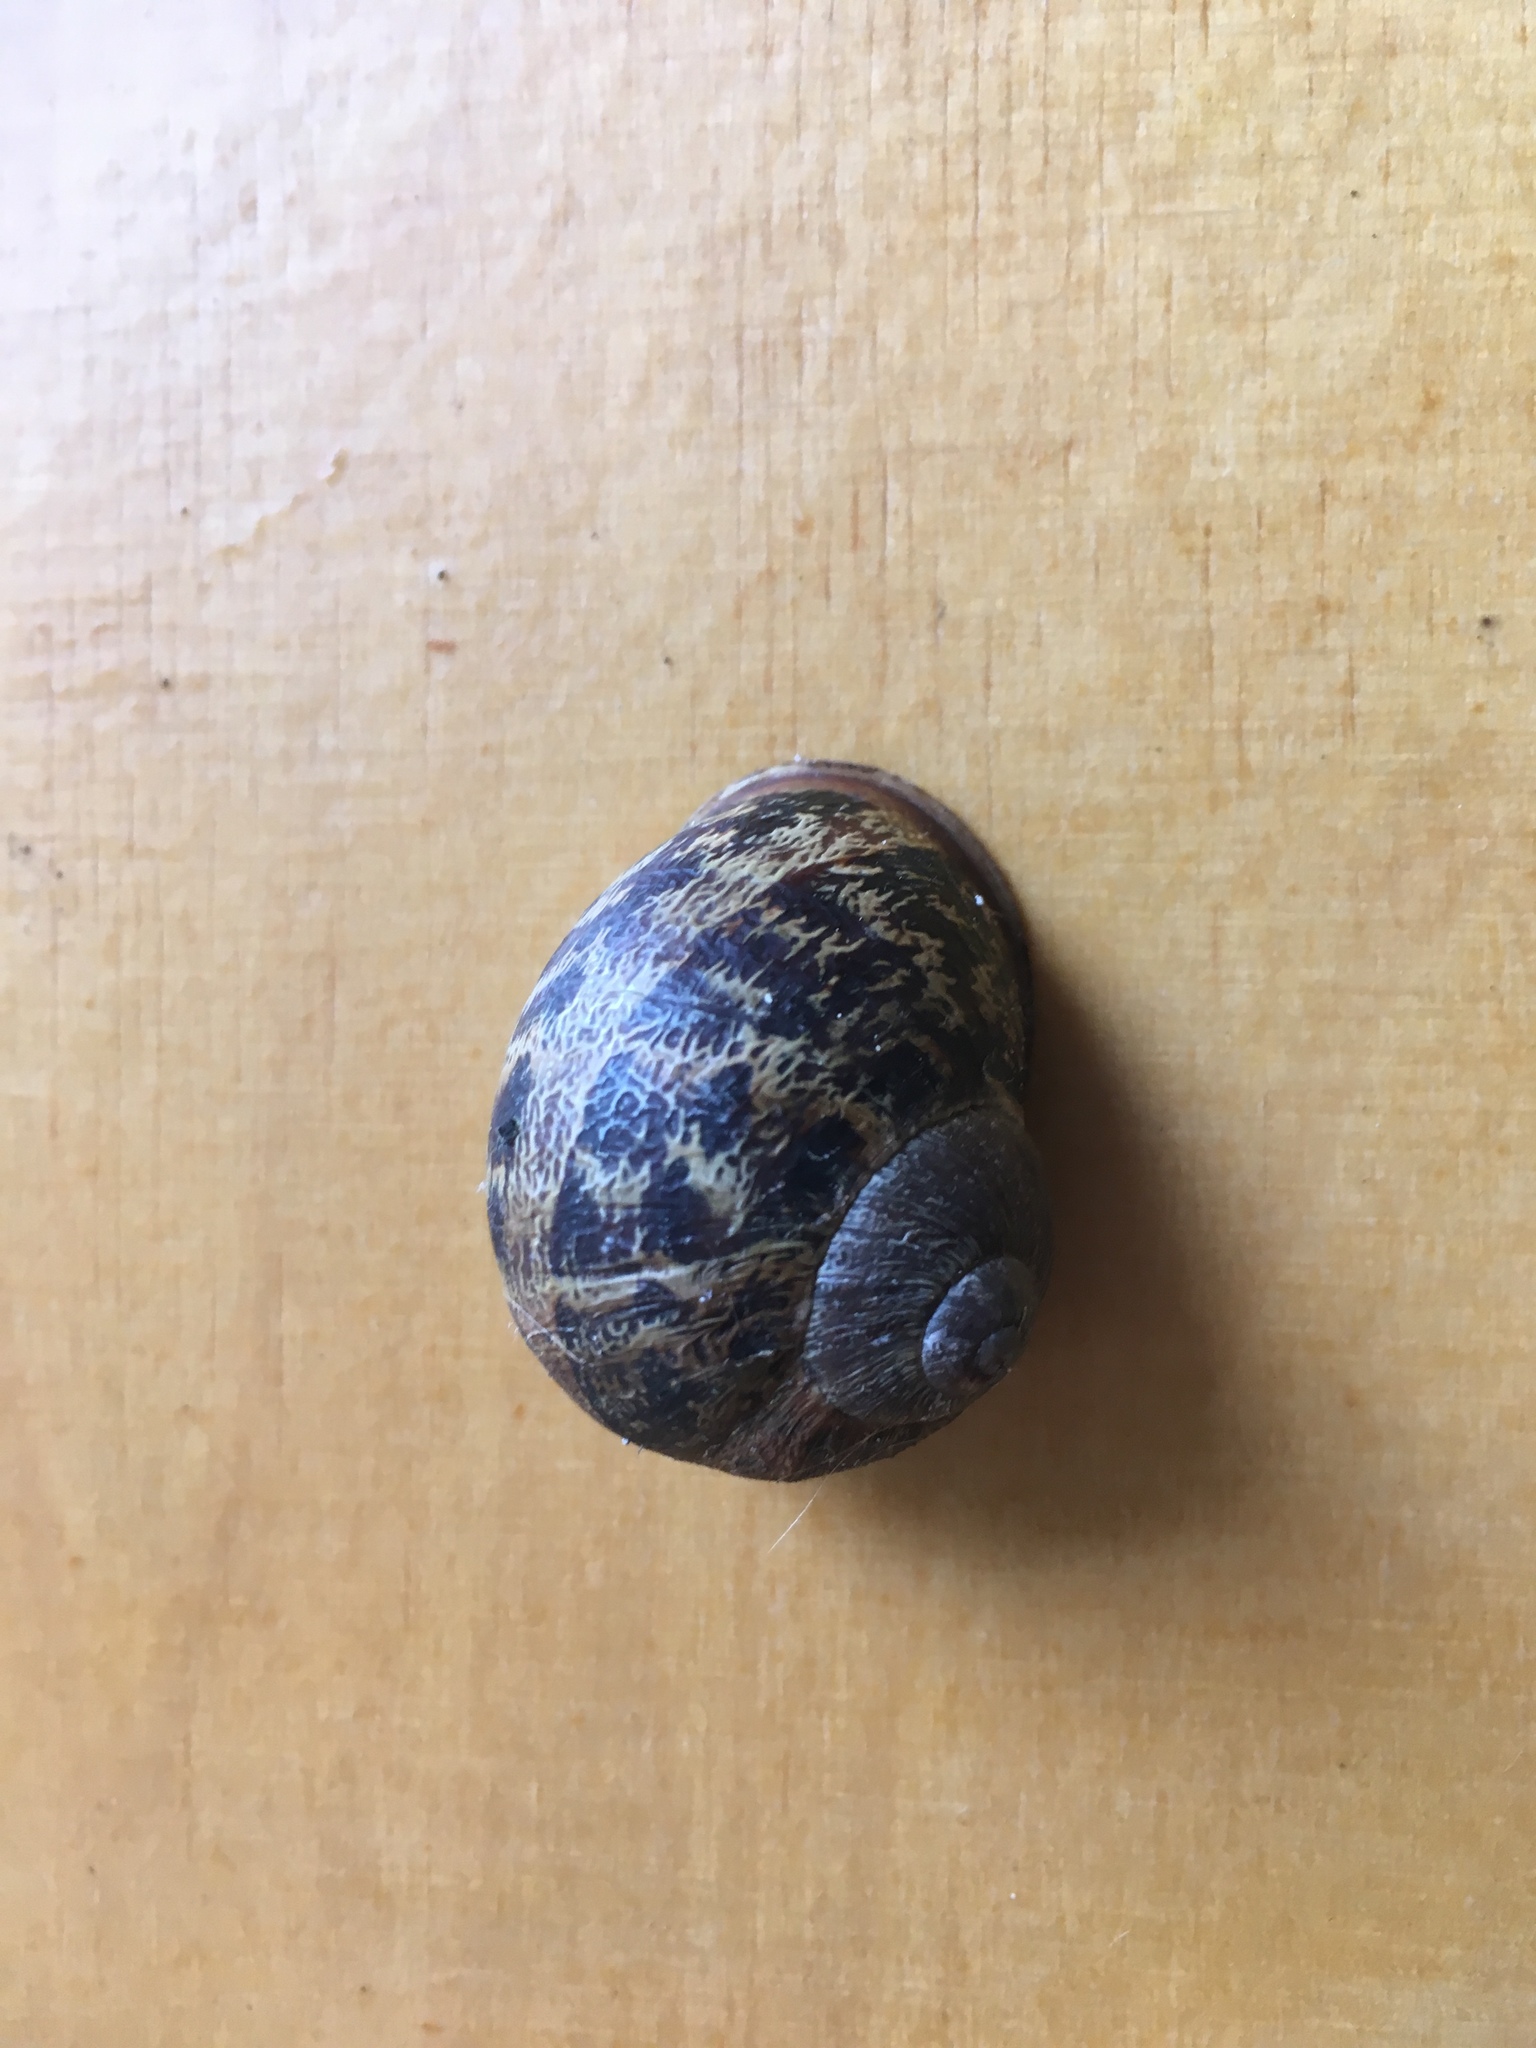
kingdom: Animalia
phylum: Mollusca
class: Gastropoda
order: Stylommatophora
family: Helicidae
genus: Cornu
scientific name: Cornu aspersum
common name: Brown garden snail
